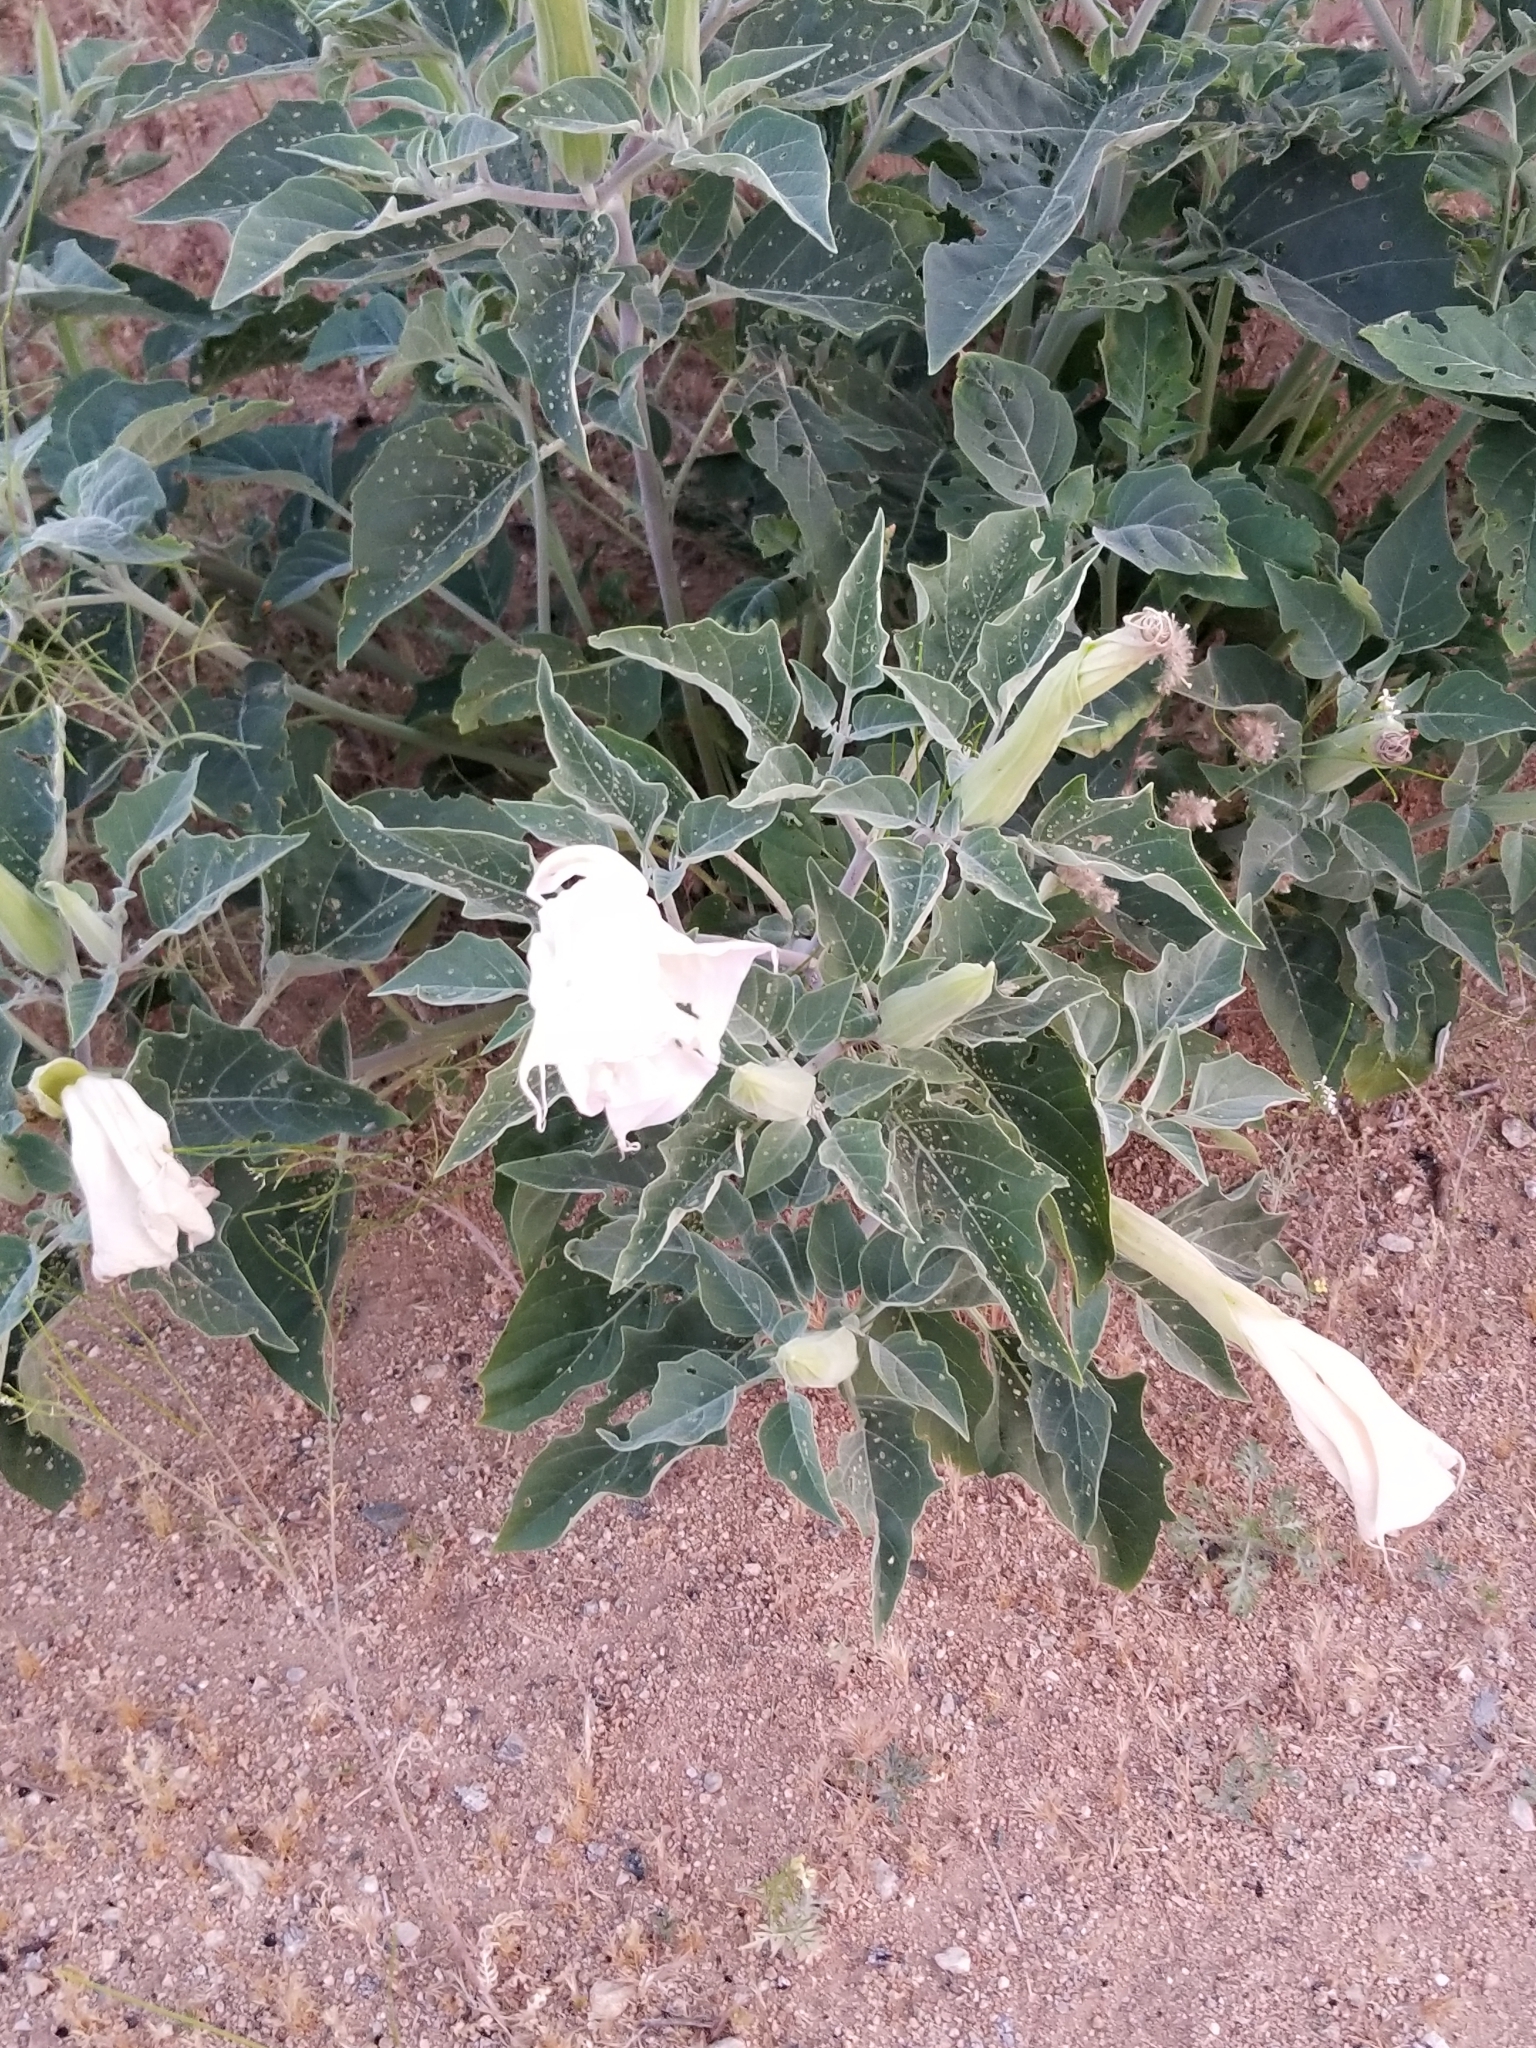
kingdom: Plantae
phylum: Tracheophyta
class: Magnoliopsida
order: Solanales
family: Solanaceae
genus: Datura
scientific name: Datura wrightii
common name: Sacred thorn-apple
